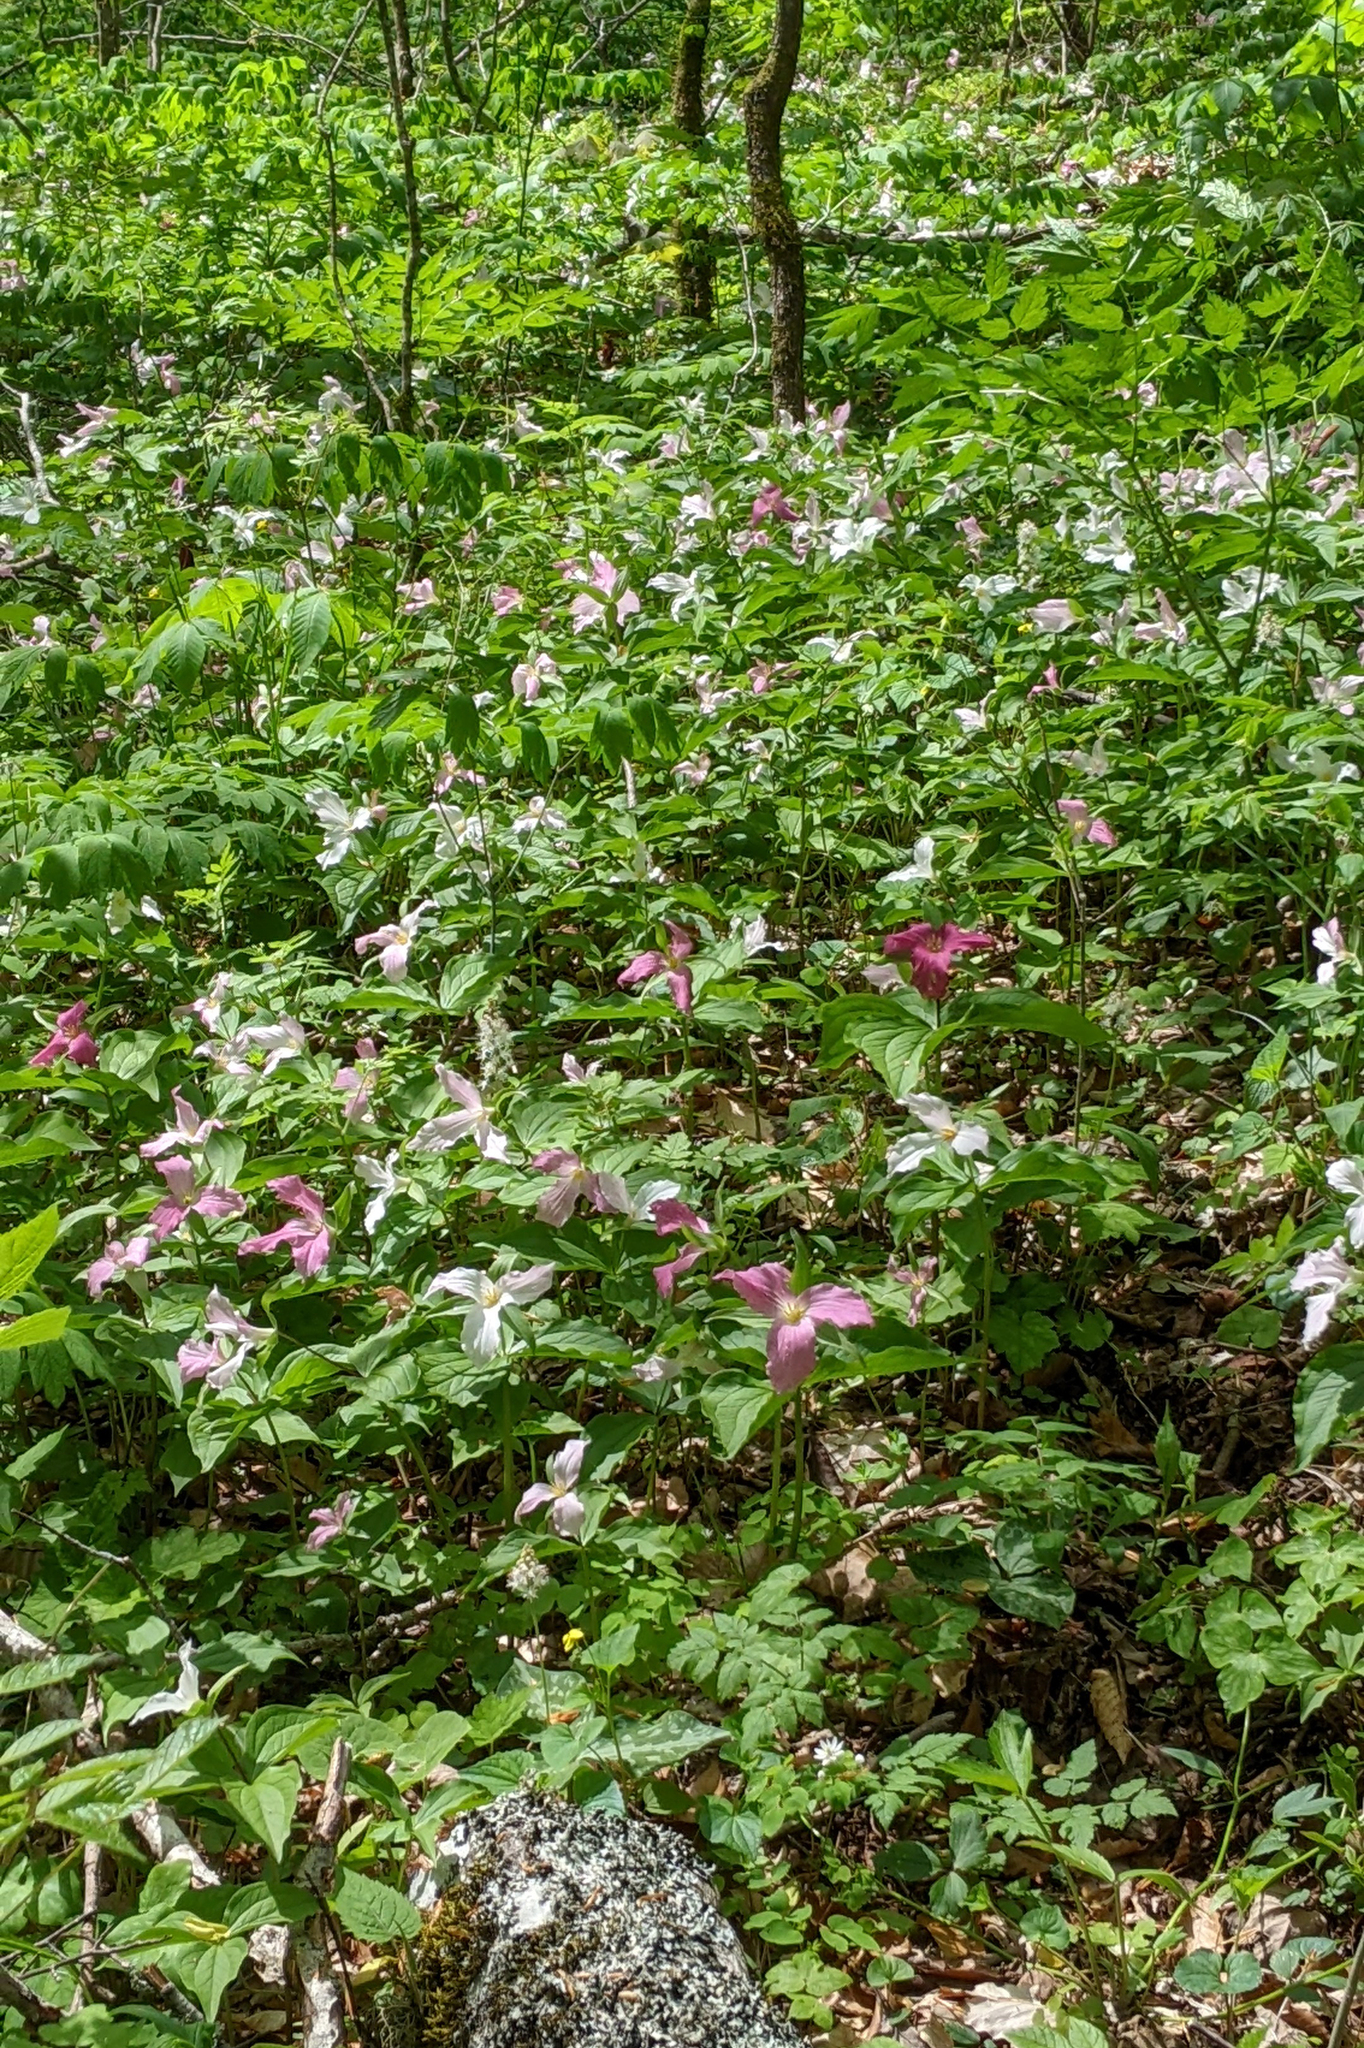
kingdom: Plantae
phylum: Tracheophyta
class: Liliopsida
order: Liliales
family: Melanthiaceae
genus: Trillium
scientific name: Trillium grandiflorum
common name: Great white trillium
